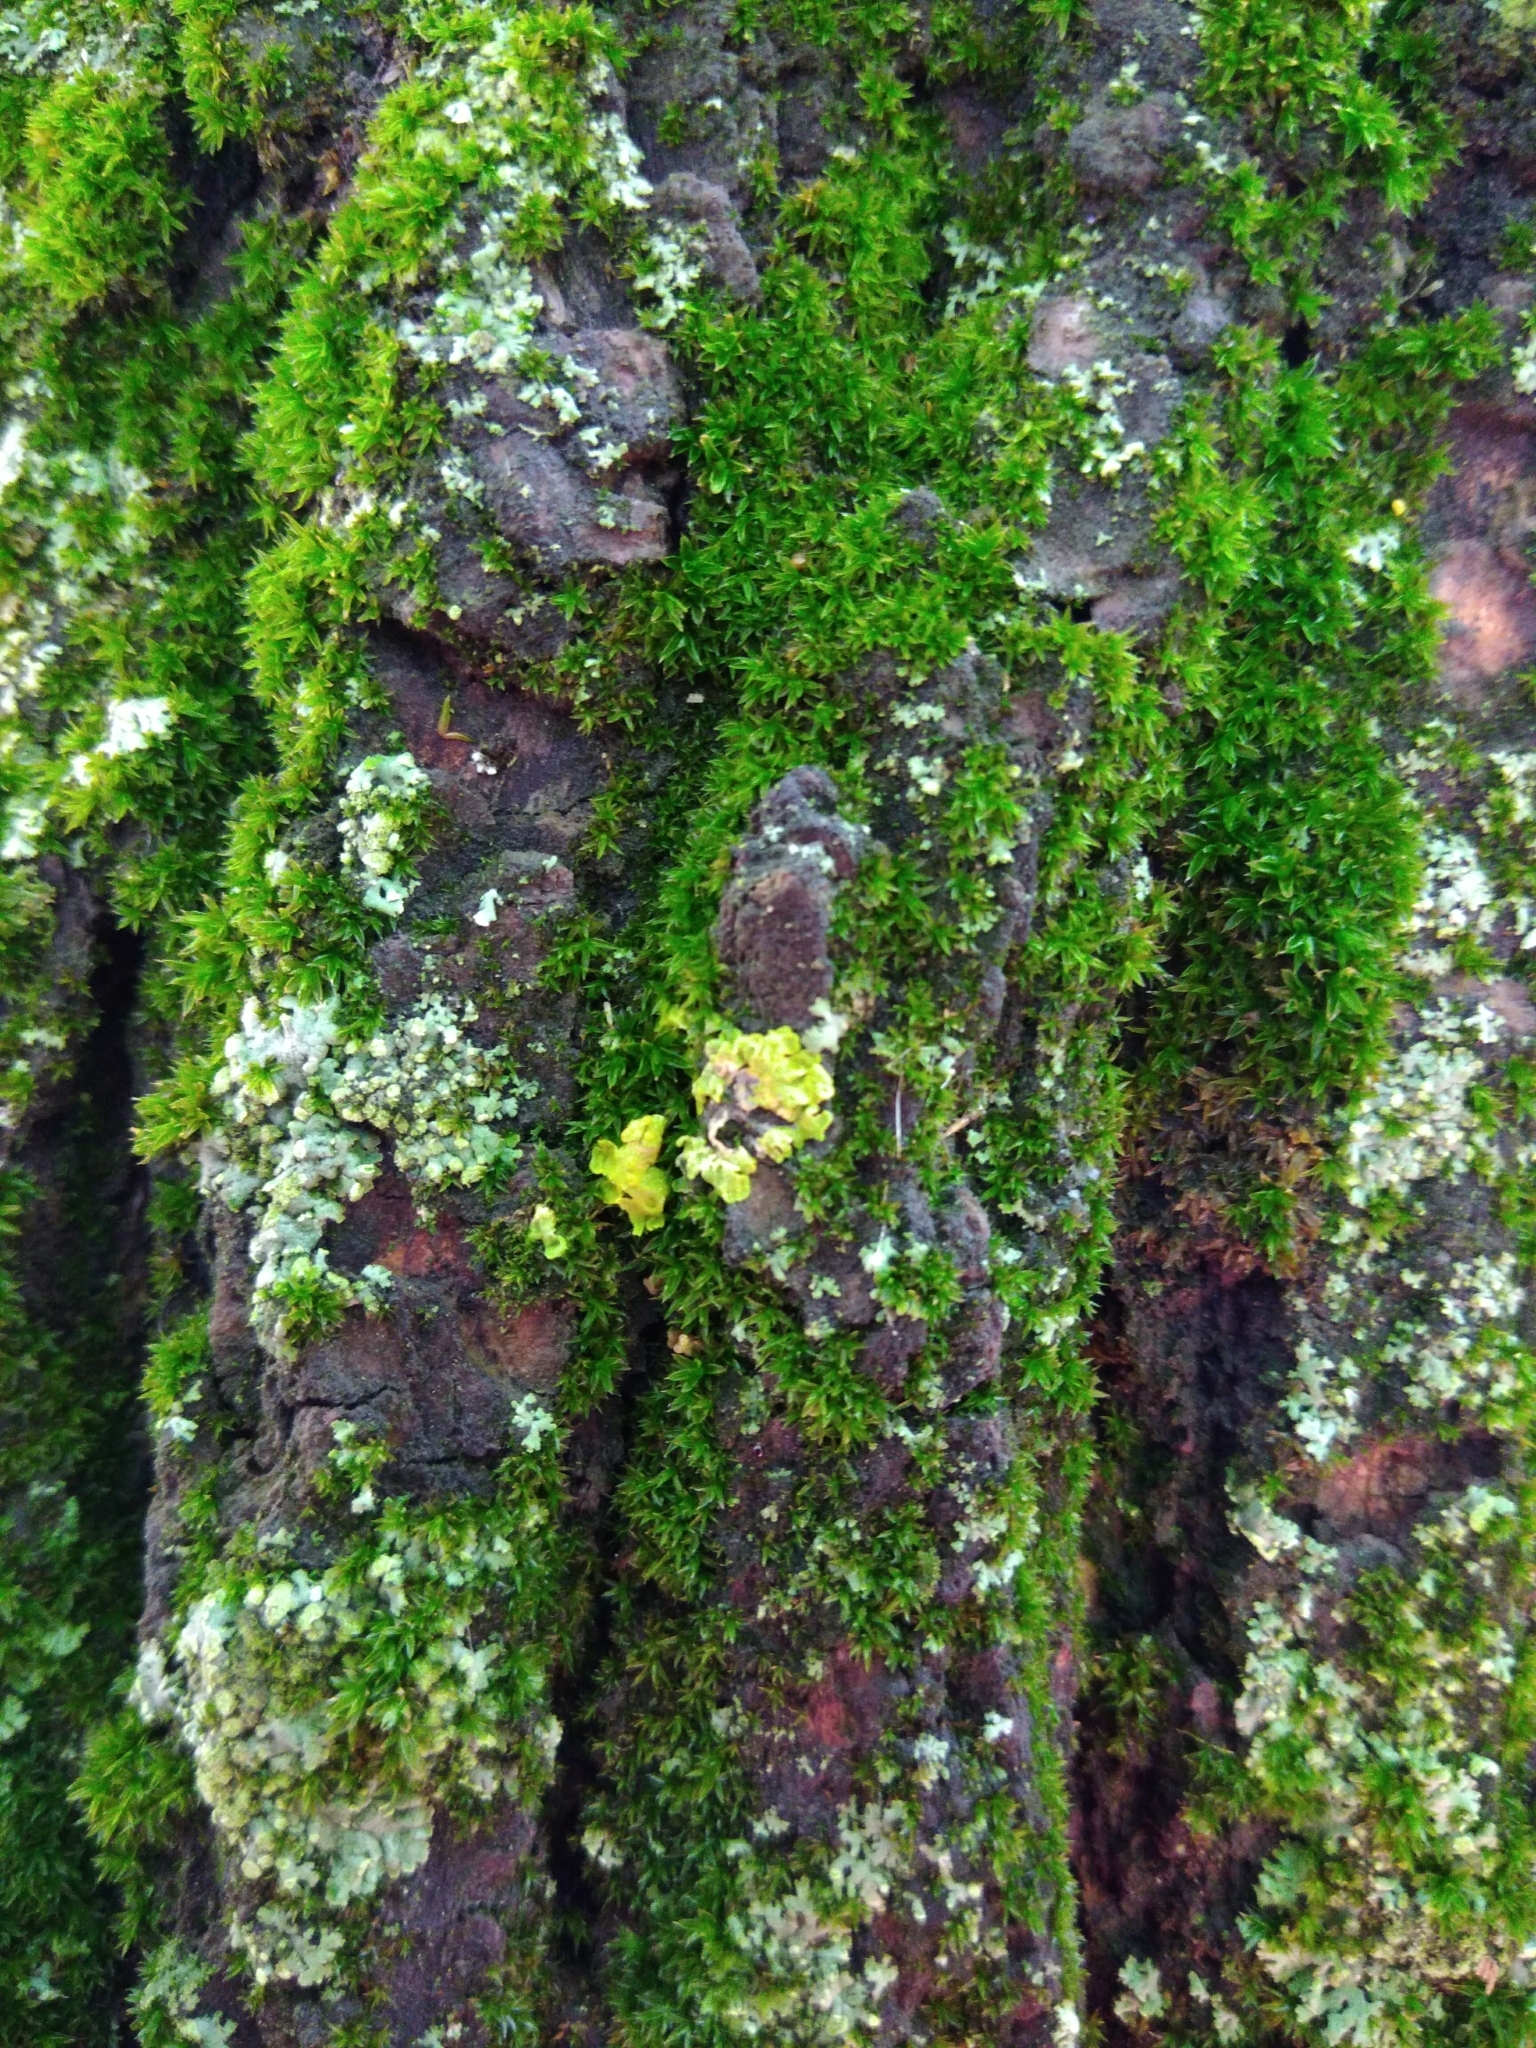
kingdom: Fungi
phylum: Ascomycota
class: Lecanoromycetes
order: Teloschistales
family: Teloschistaceae
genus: Xanthoria
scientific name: Xanthoria parietina
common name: Common orange lichen
